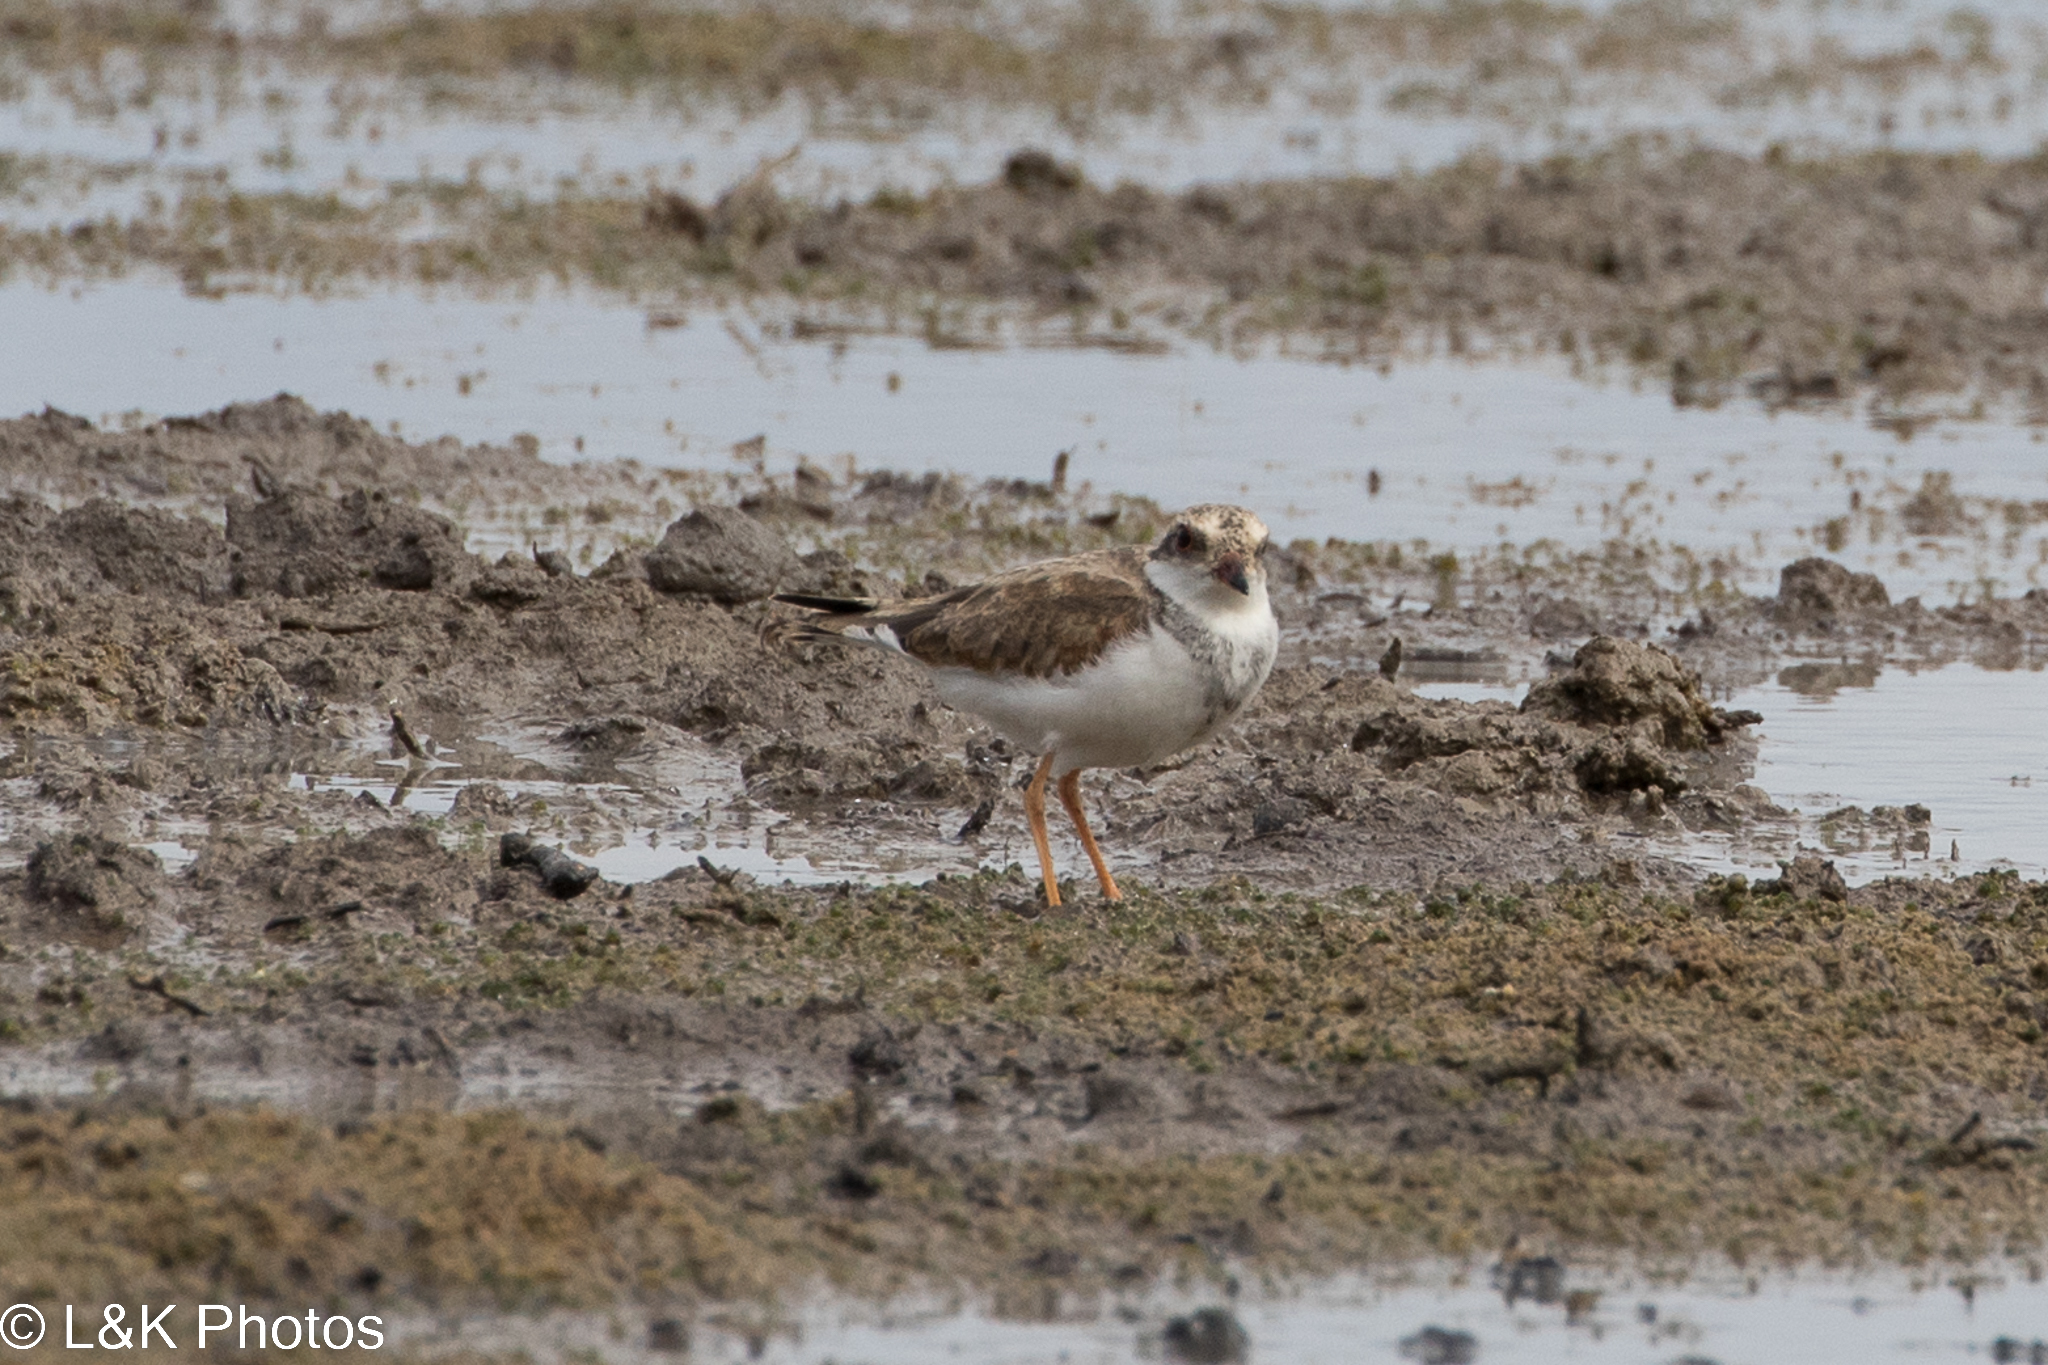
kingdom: Animalia
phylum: Chordata
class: Aves
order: Charadriiformes
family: Charadriidae
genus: Elseyornis
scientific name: Elseyornis melanops
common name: Black-fronted dotterel
